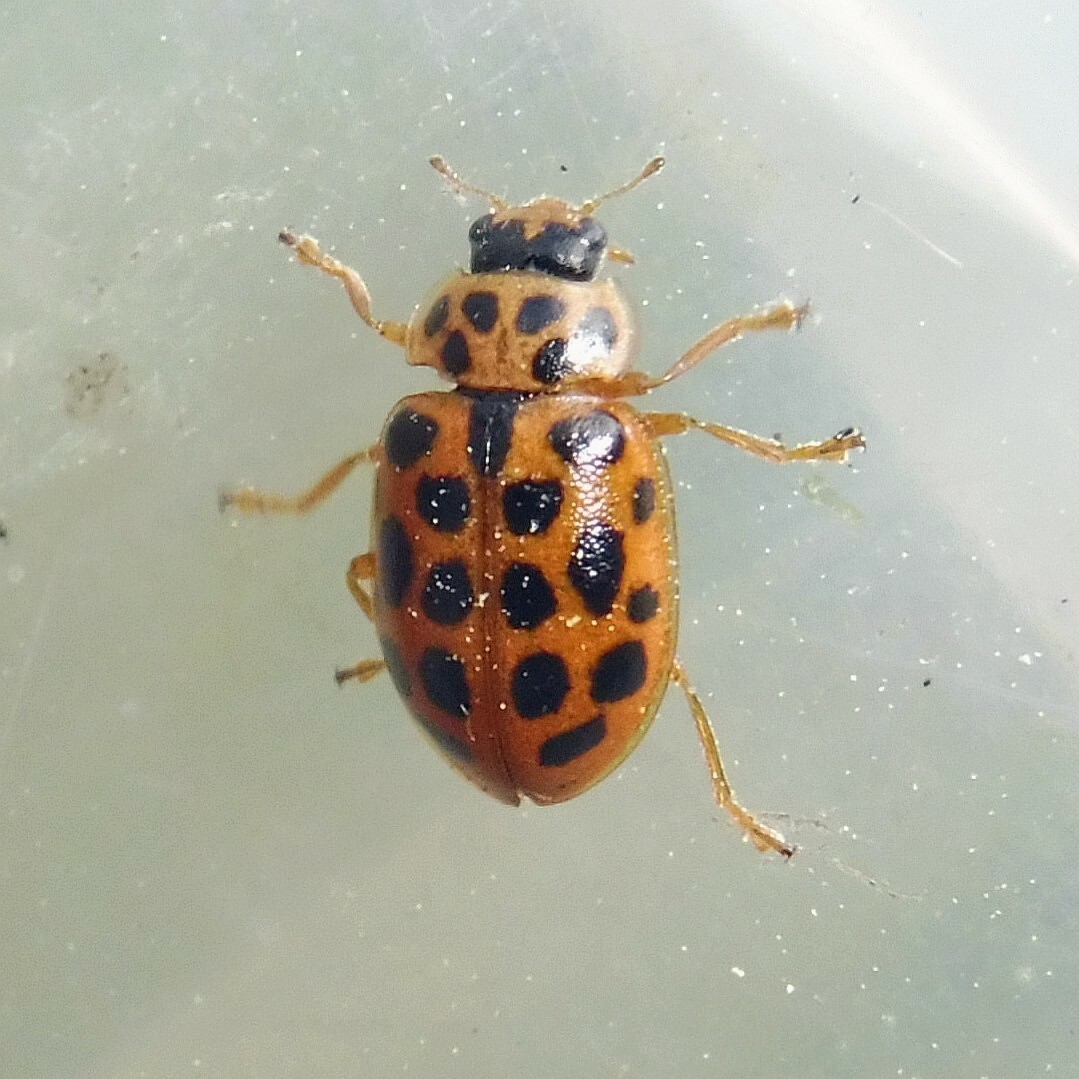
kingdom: Animalia
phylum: Arthropoda
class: Insecta
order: Coleoptera
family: Coccinellidae
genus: Anisosticta
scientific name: Anisosticta novemdecimpunctata
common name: Water ladybird
